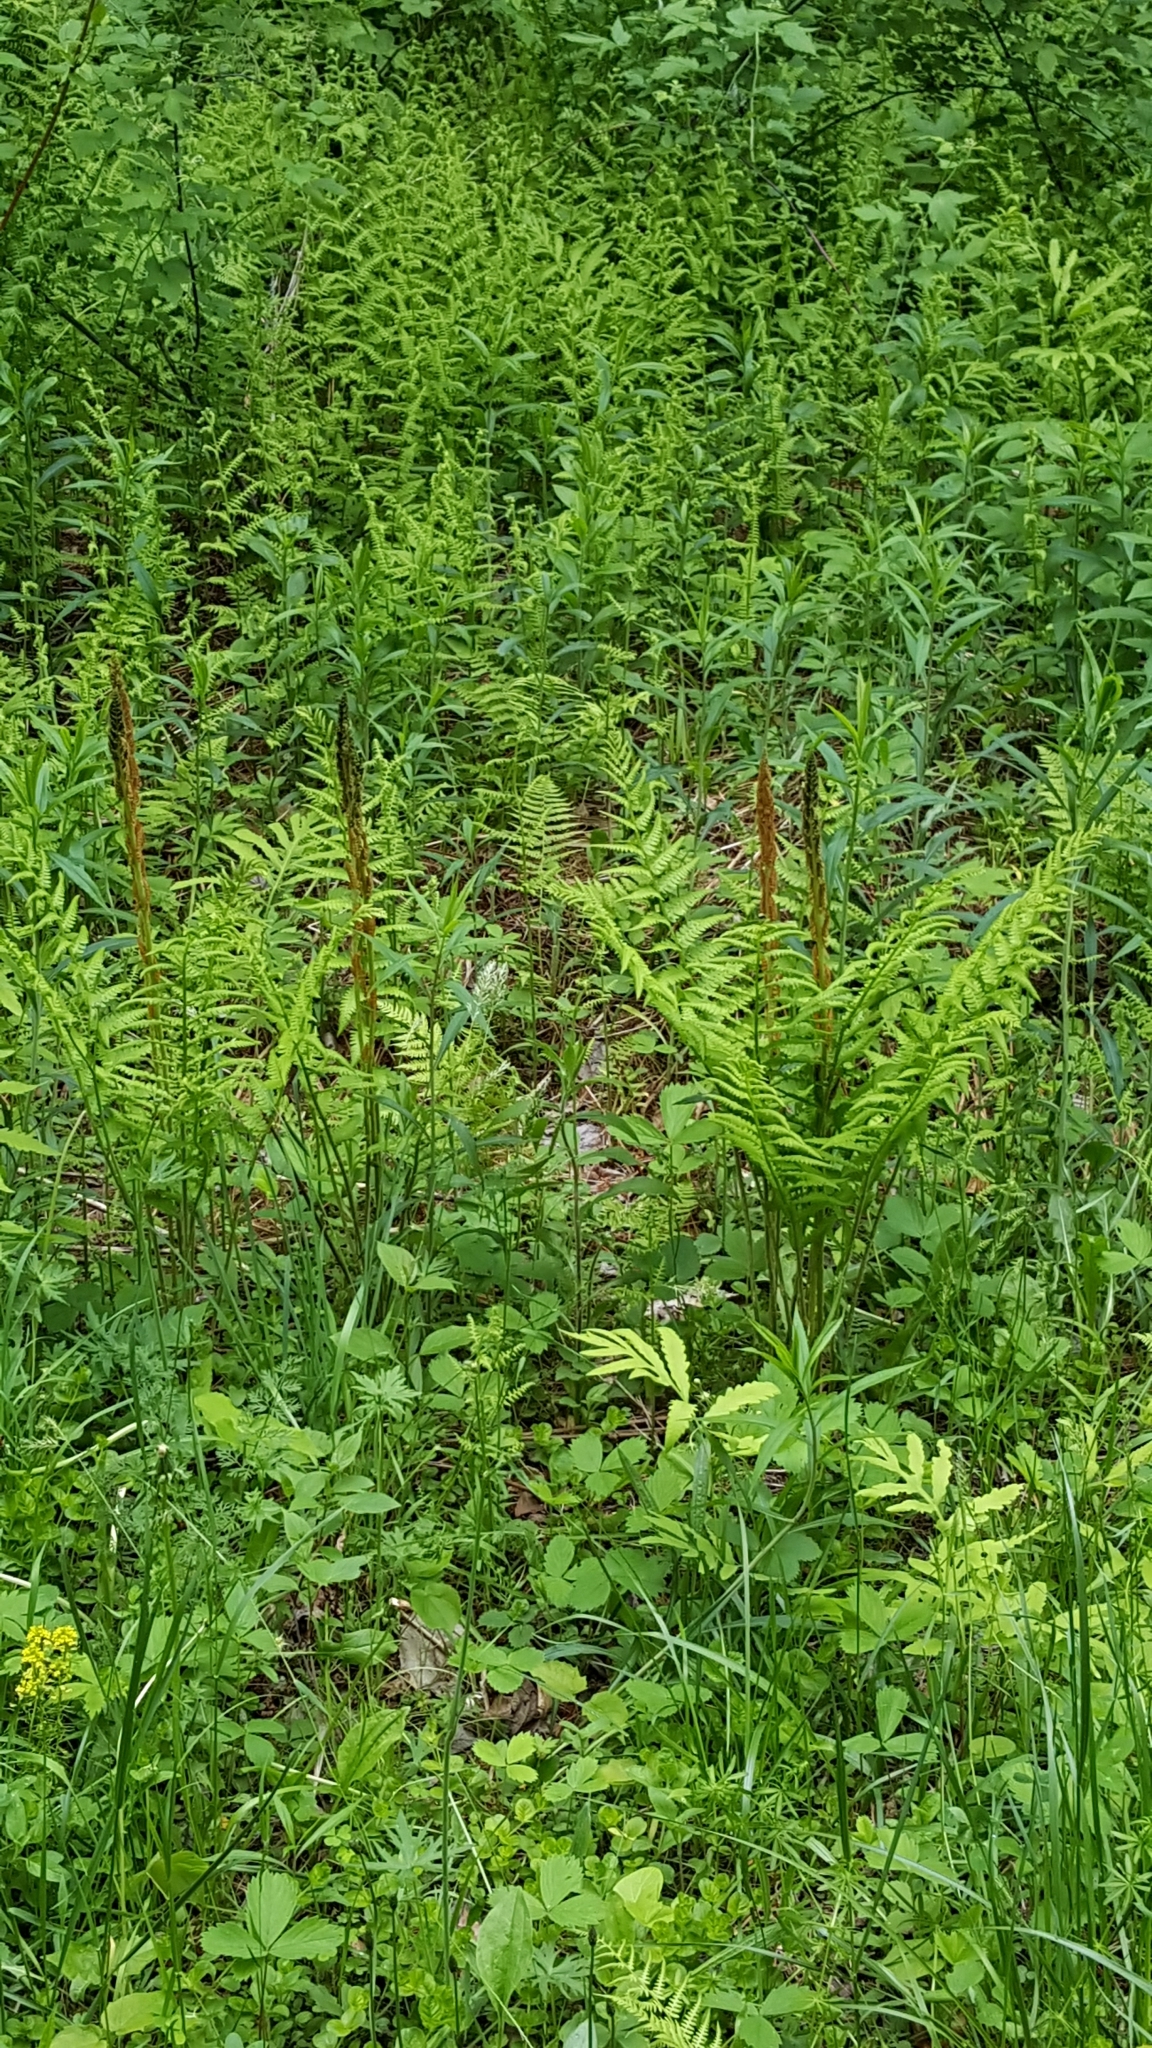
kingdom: Plantae
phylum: Tracheophyta
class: Polypodiopsida
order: Osmundales
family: Osmundaceae
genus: Osmundastrum
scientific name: Osmundastrum cinnamomeum
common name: Cinnamon fern
